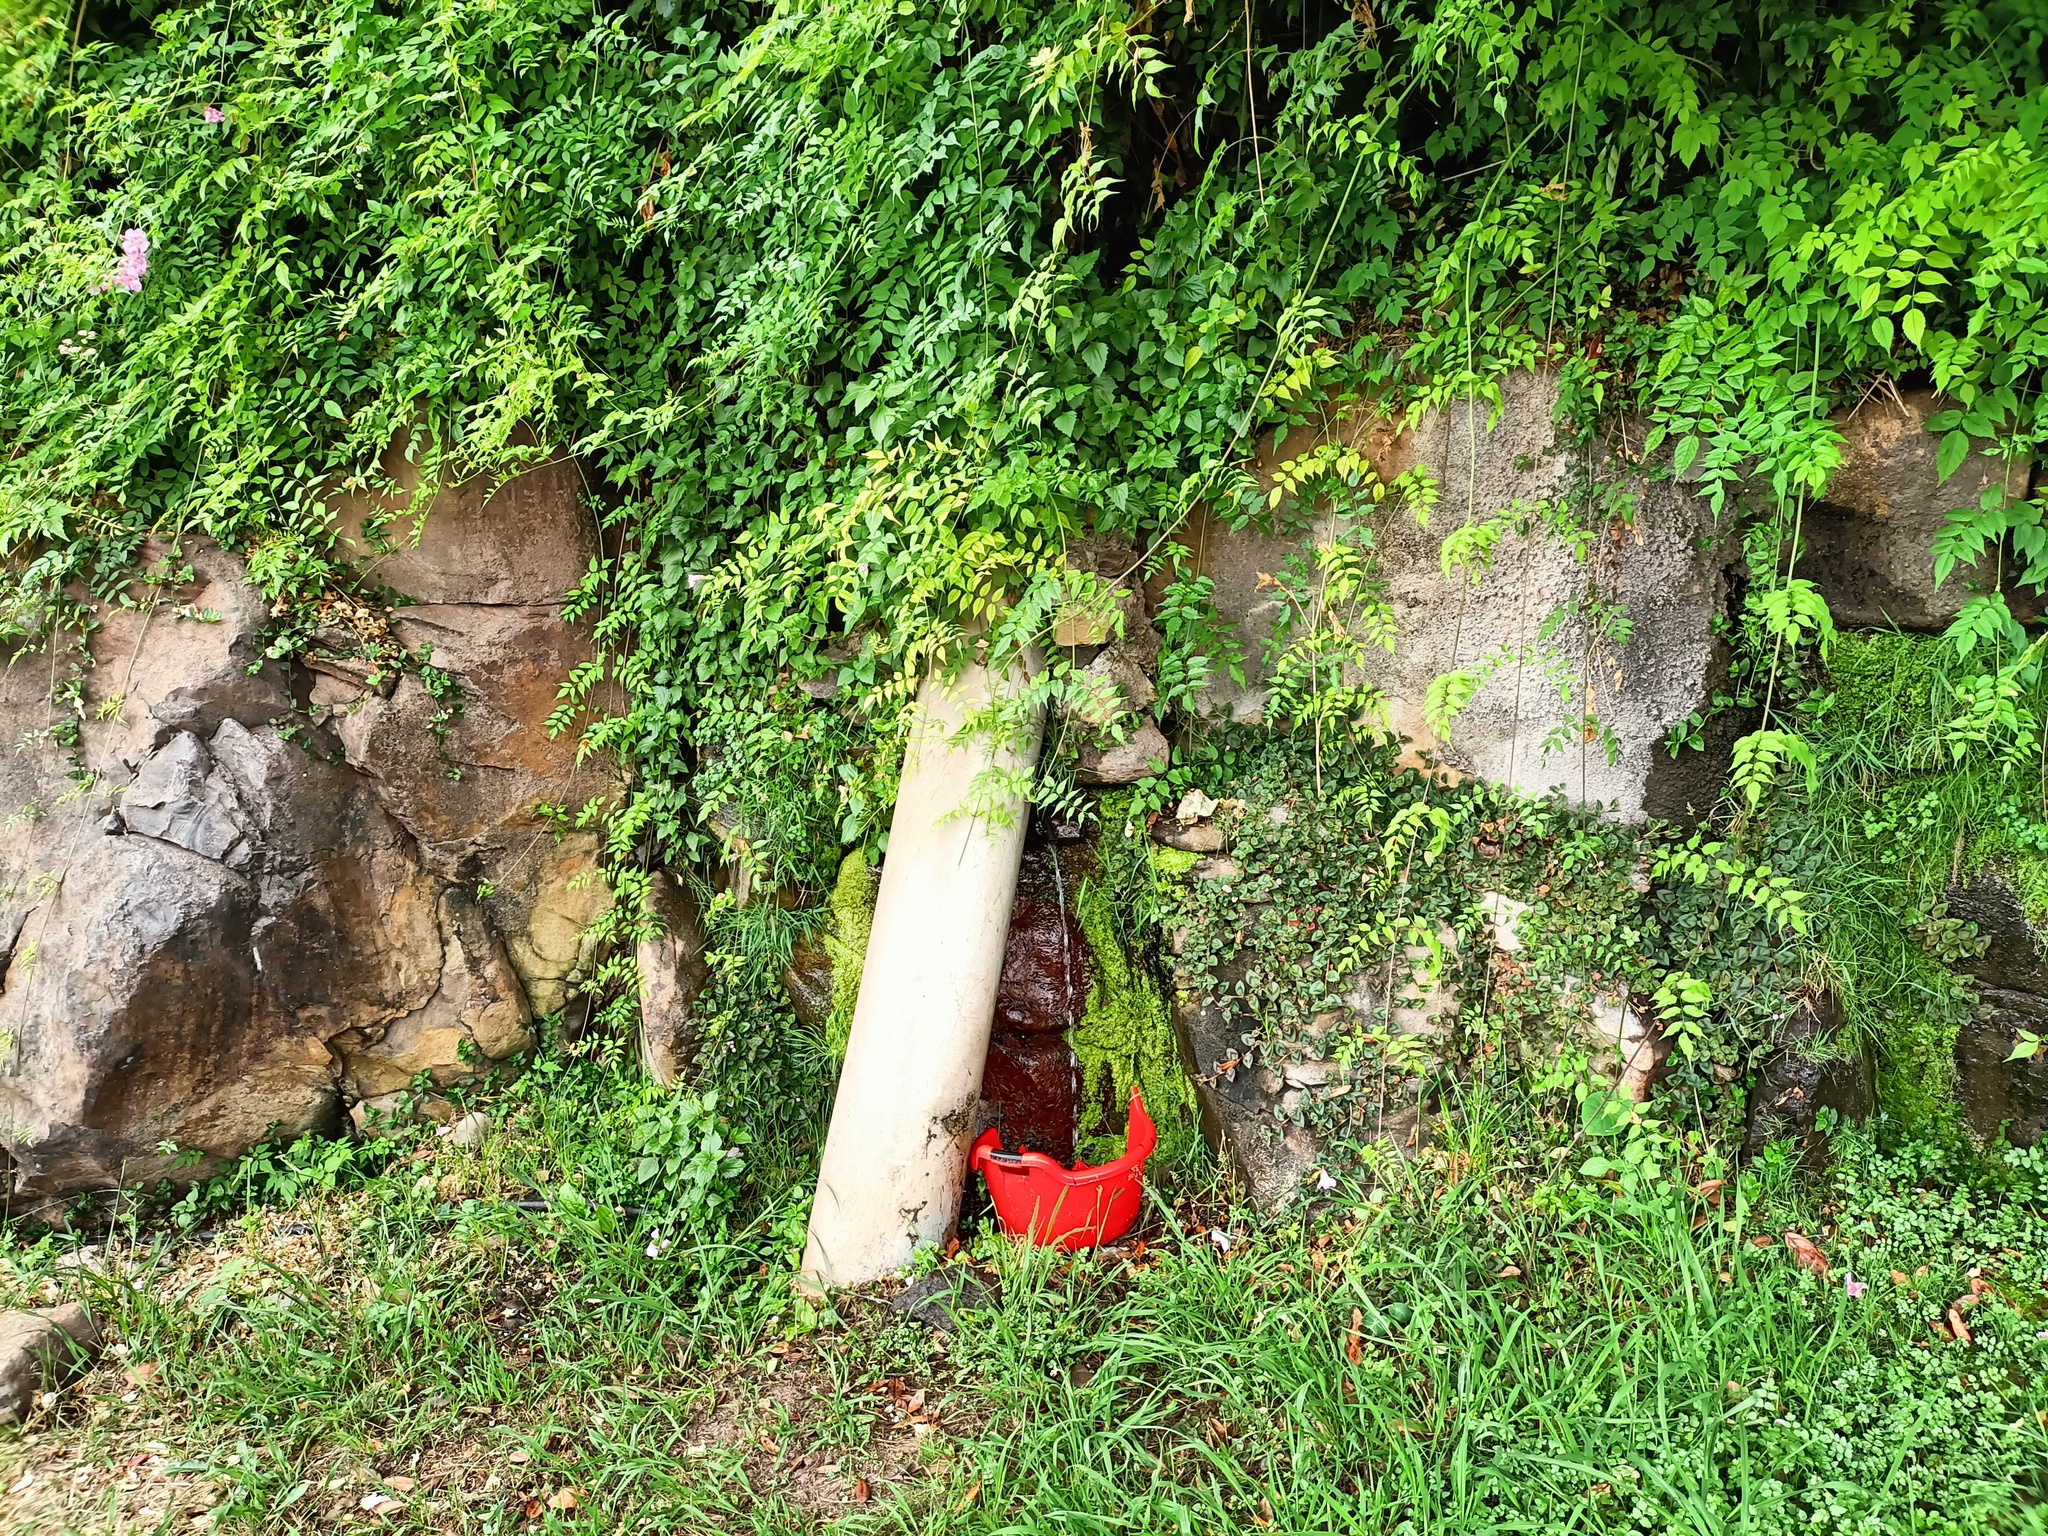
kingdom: Plantae
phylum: Tracheophyta
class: Magnoliopsida
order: Lamiales
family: Bignoniaceae
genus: Podranea
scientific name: Podranea ricasoliana
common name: Zimbabwe creeper
